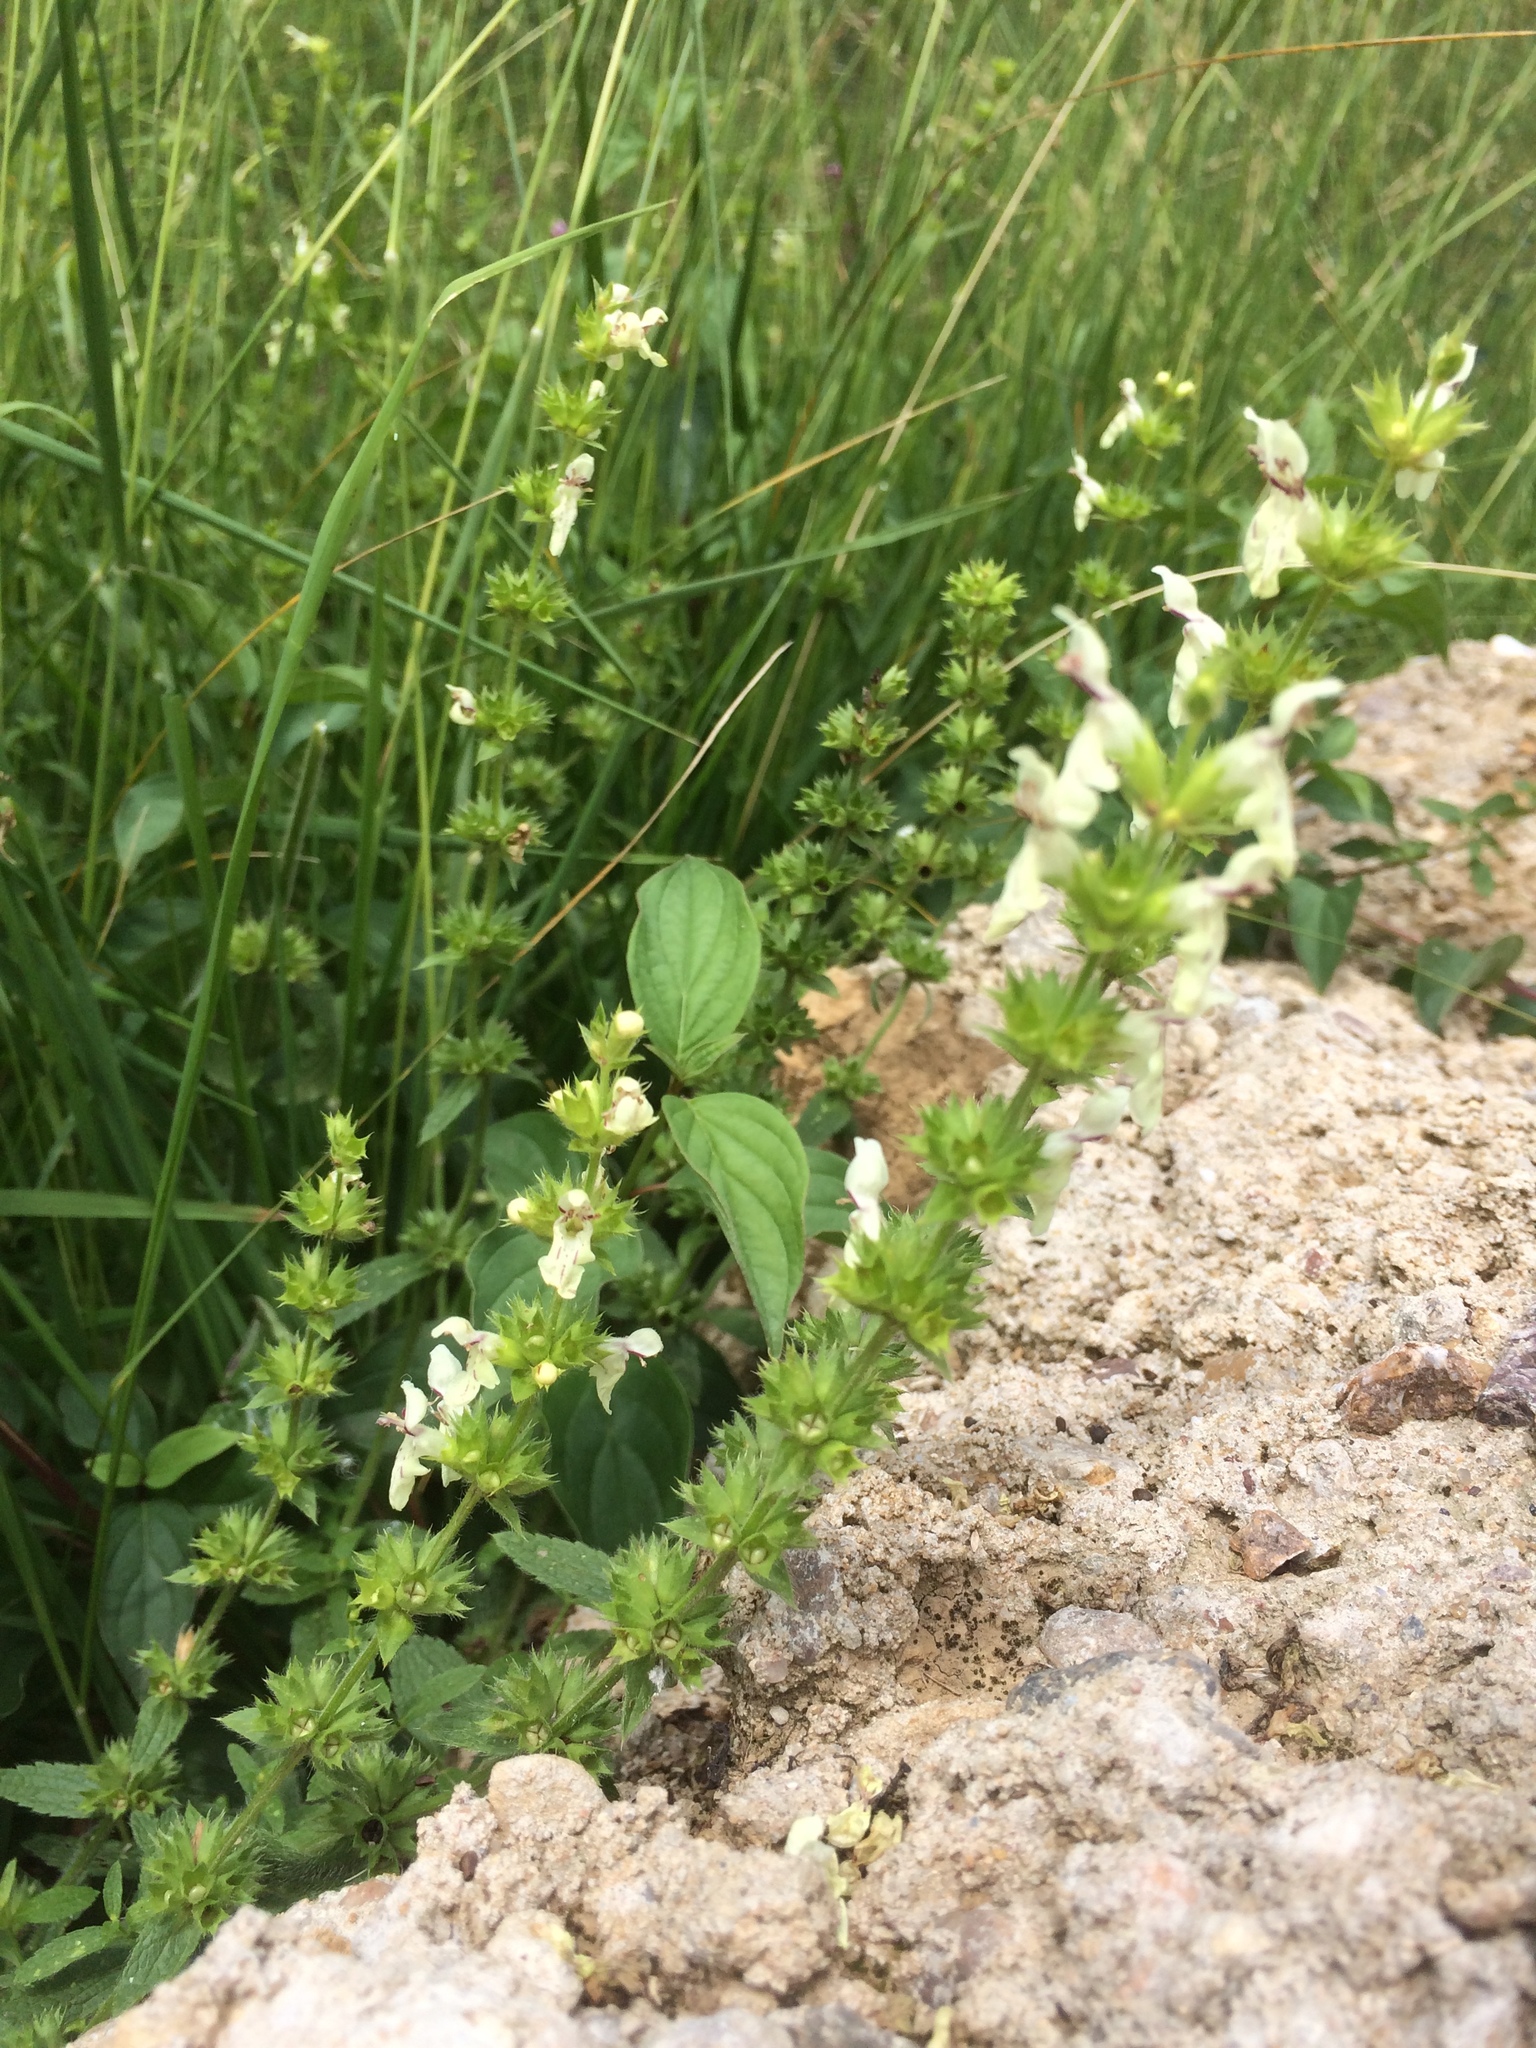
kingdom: Plantae
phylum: Tracheophyta
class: Magnoliopsida
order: Lamiales
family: Lamiaceae
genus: Stachys
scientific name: Stachys recta
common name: Perennial yellow-woundwort
